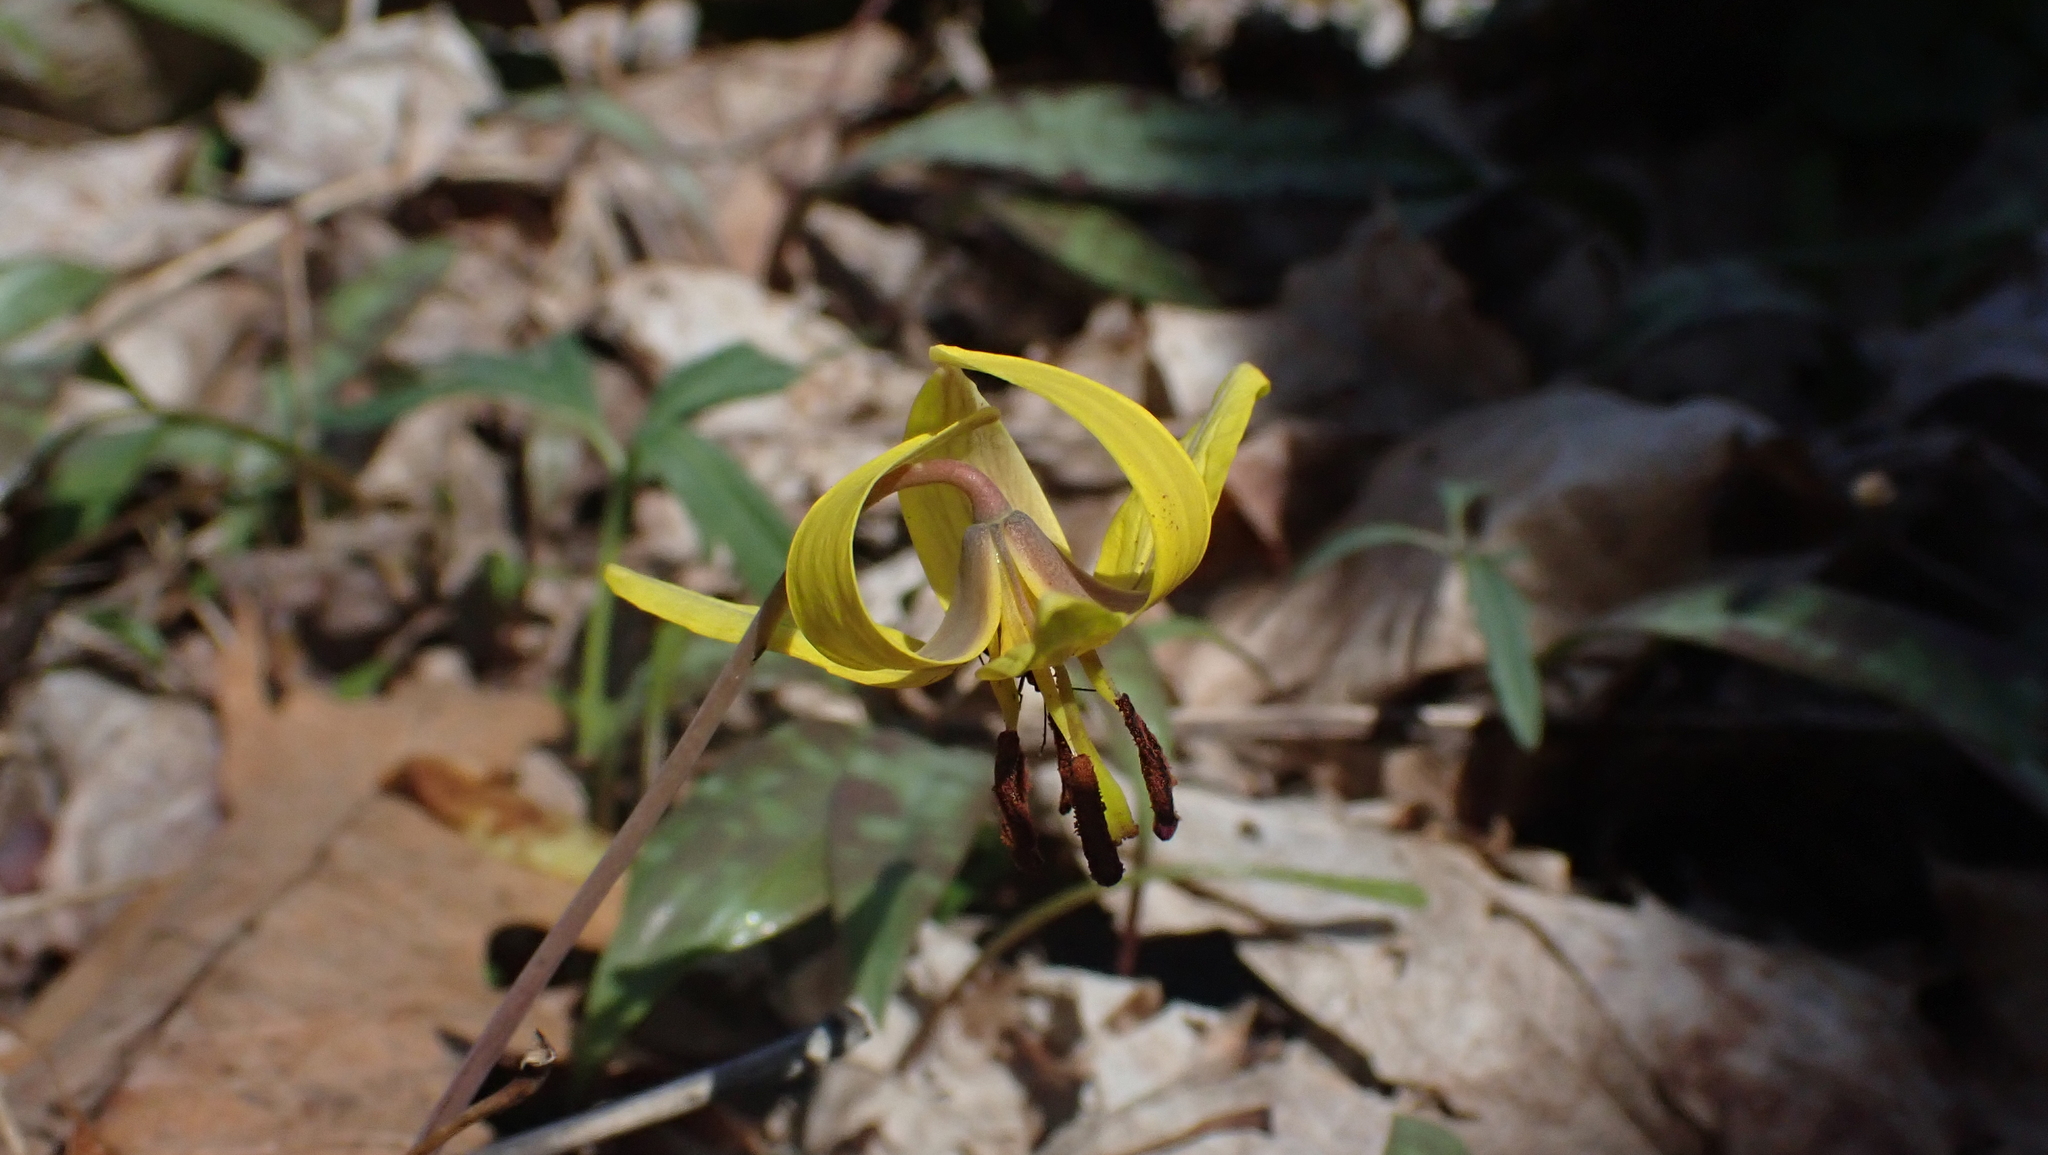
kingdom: Plantae
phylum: Tracheophyta
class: Liliopsida
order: Liliales
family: Liliaceae
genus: Erythronium
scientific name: Erythronium americanum
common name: Yellow adder's-tongue
